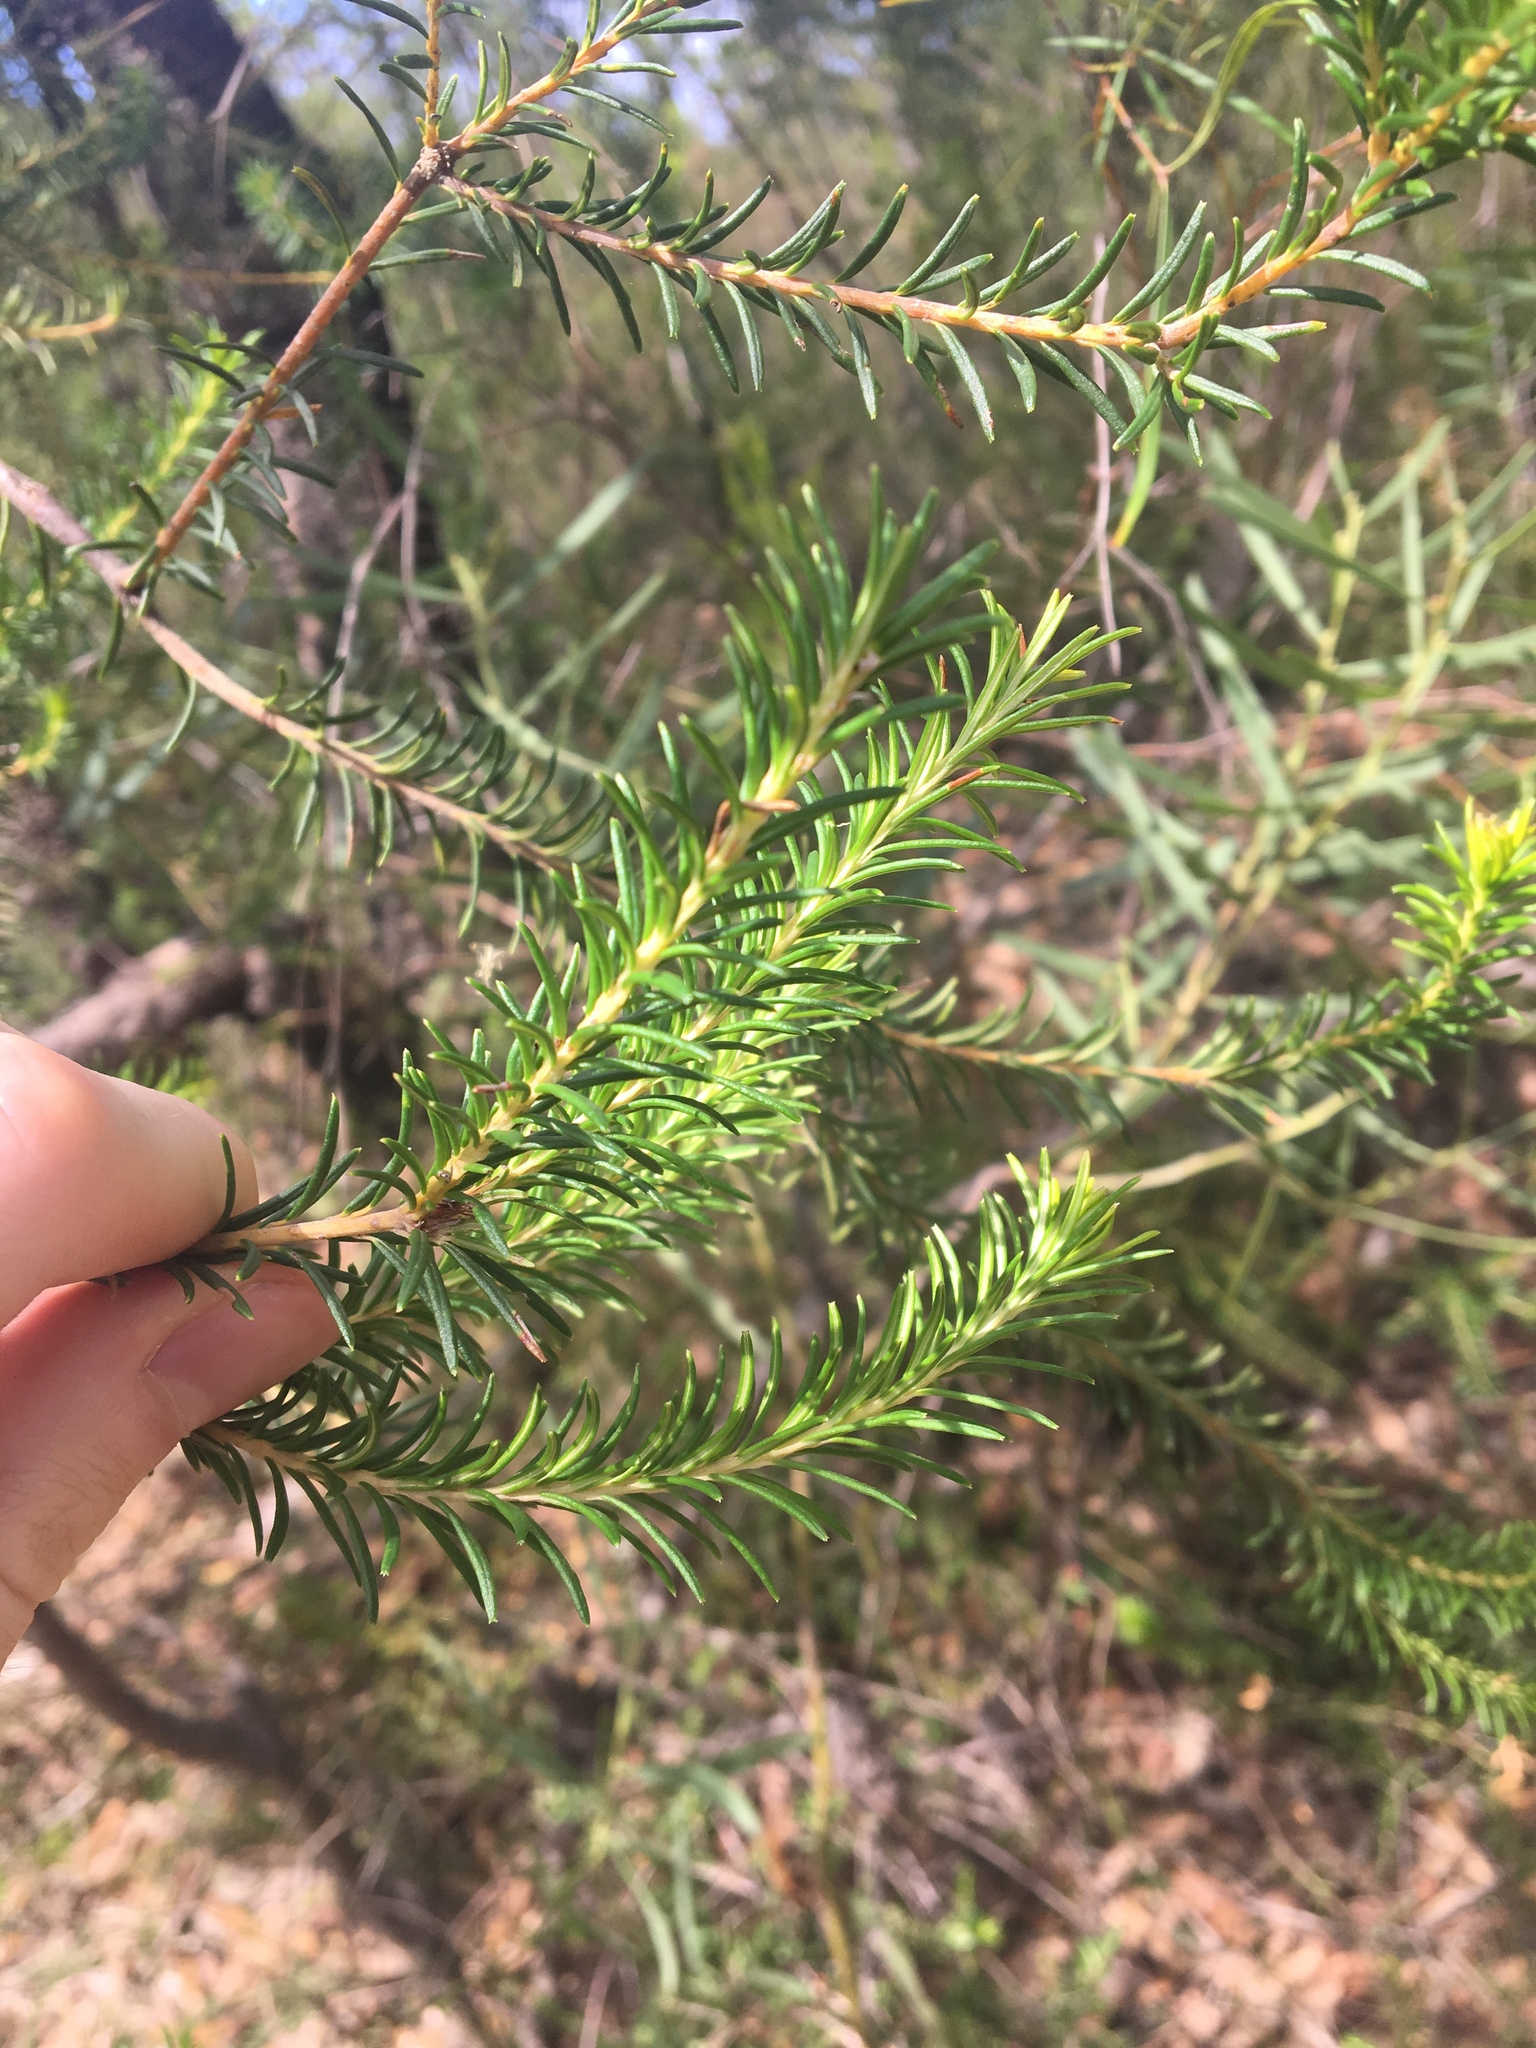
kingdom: Plantae
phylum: Tracheophyta
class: Magnoliopsida
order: Proteales
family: Proteaceae
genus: Banksia
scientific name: Banksia ericifolia
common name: Heath-leaf banksia
